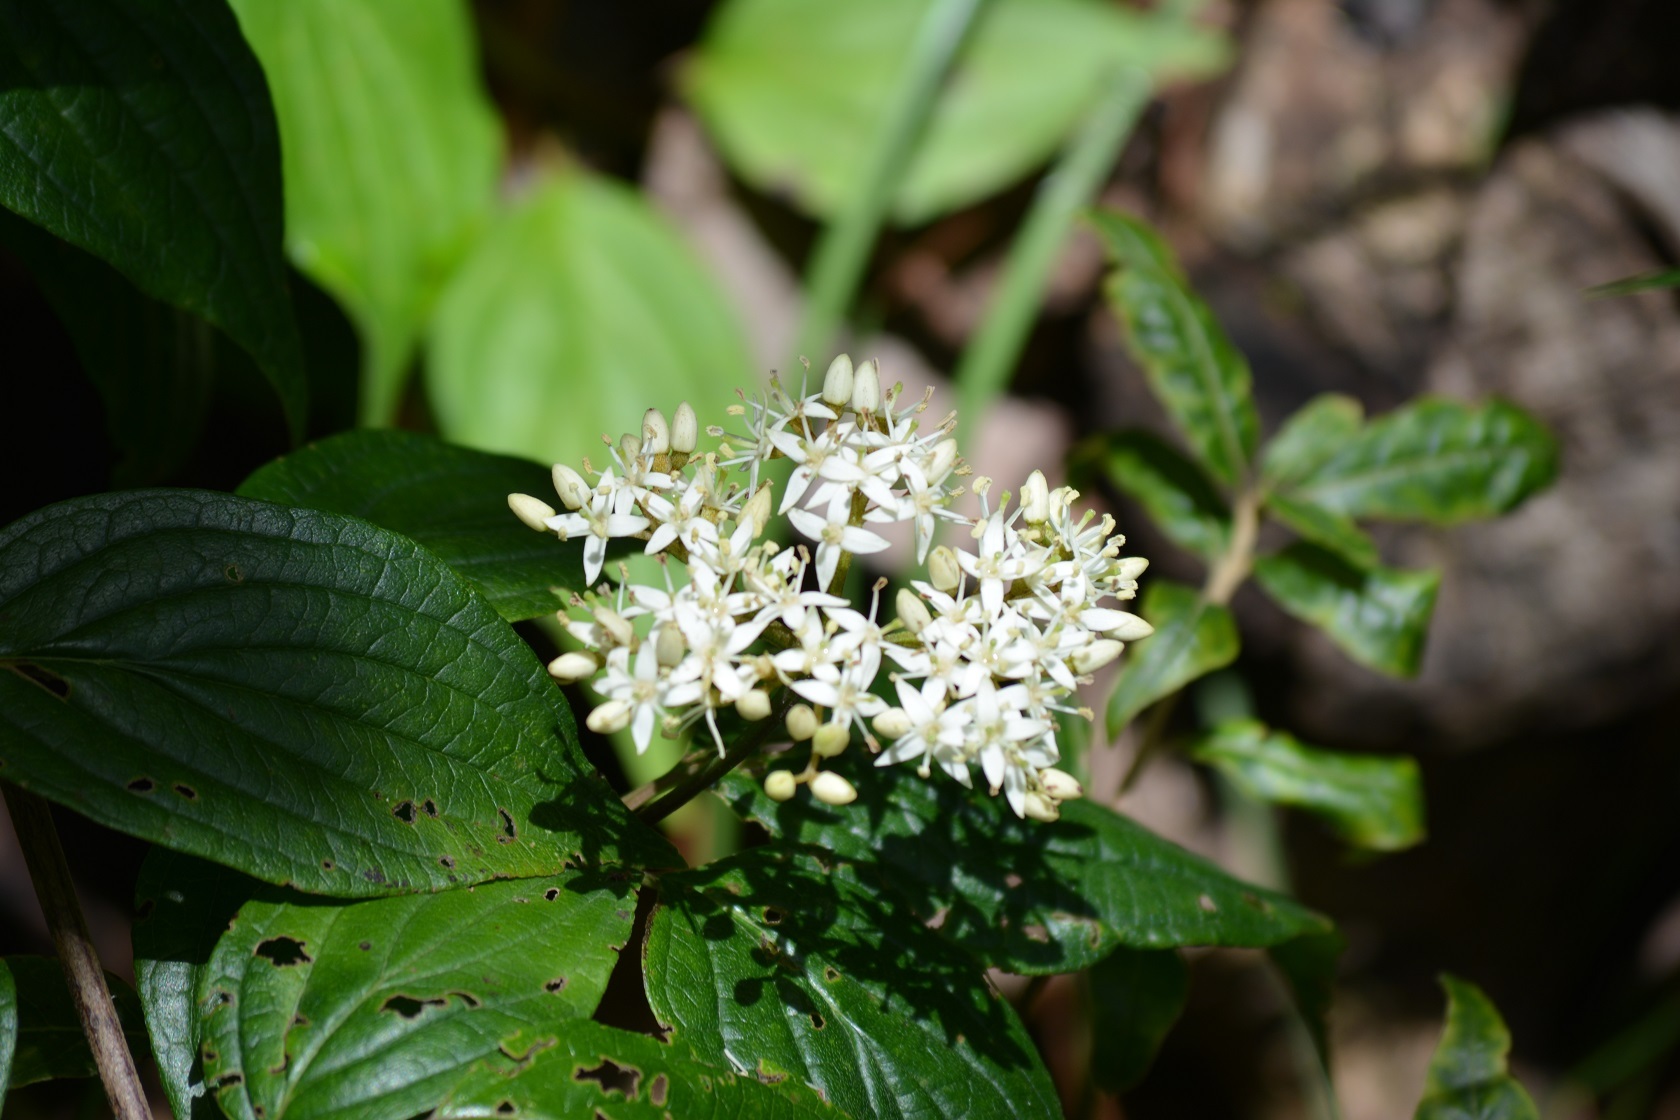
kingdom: Plantae
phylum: Tracheophyta
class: Magnoliopsida
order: Cornales
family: Cornaceae
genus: Cornus
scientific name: Cornus excelsa
